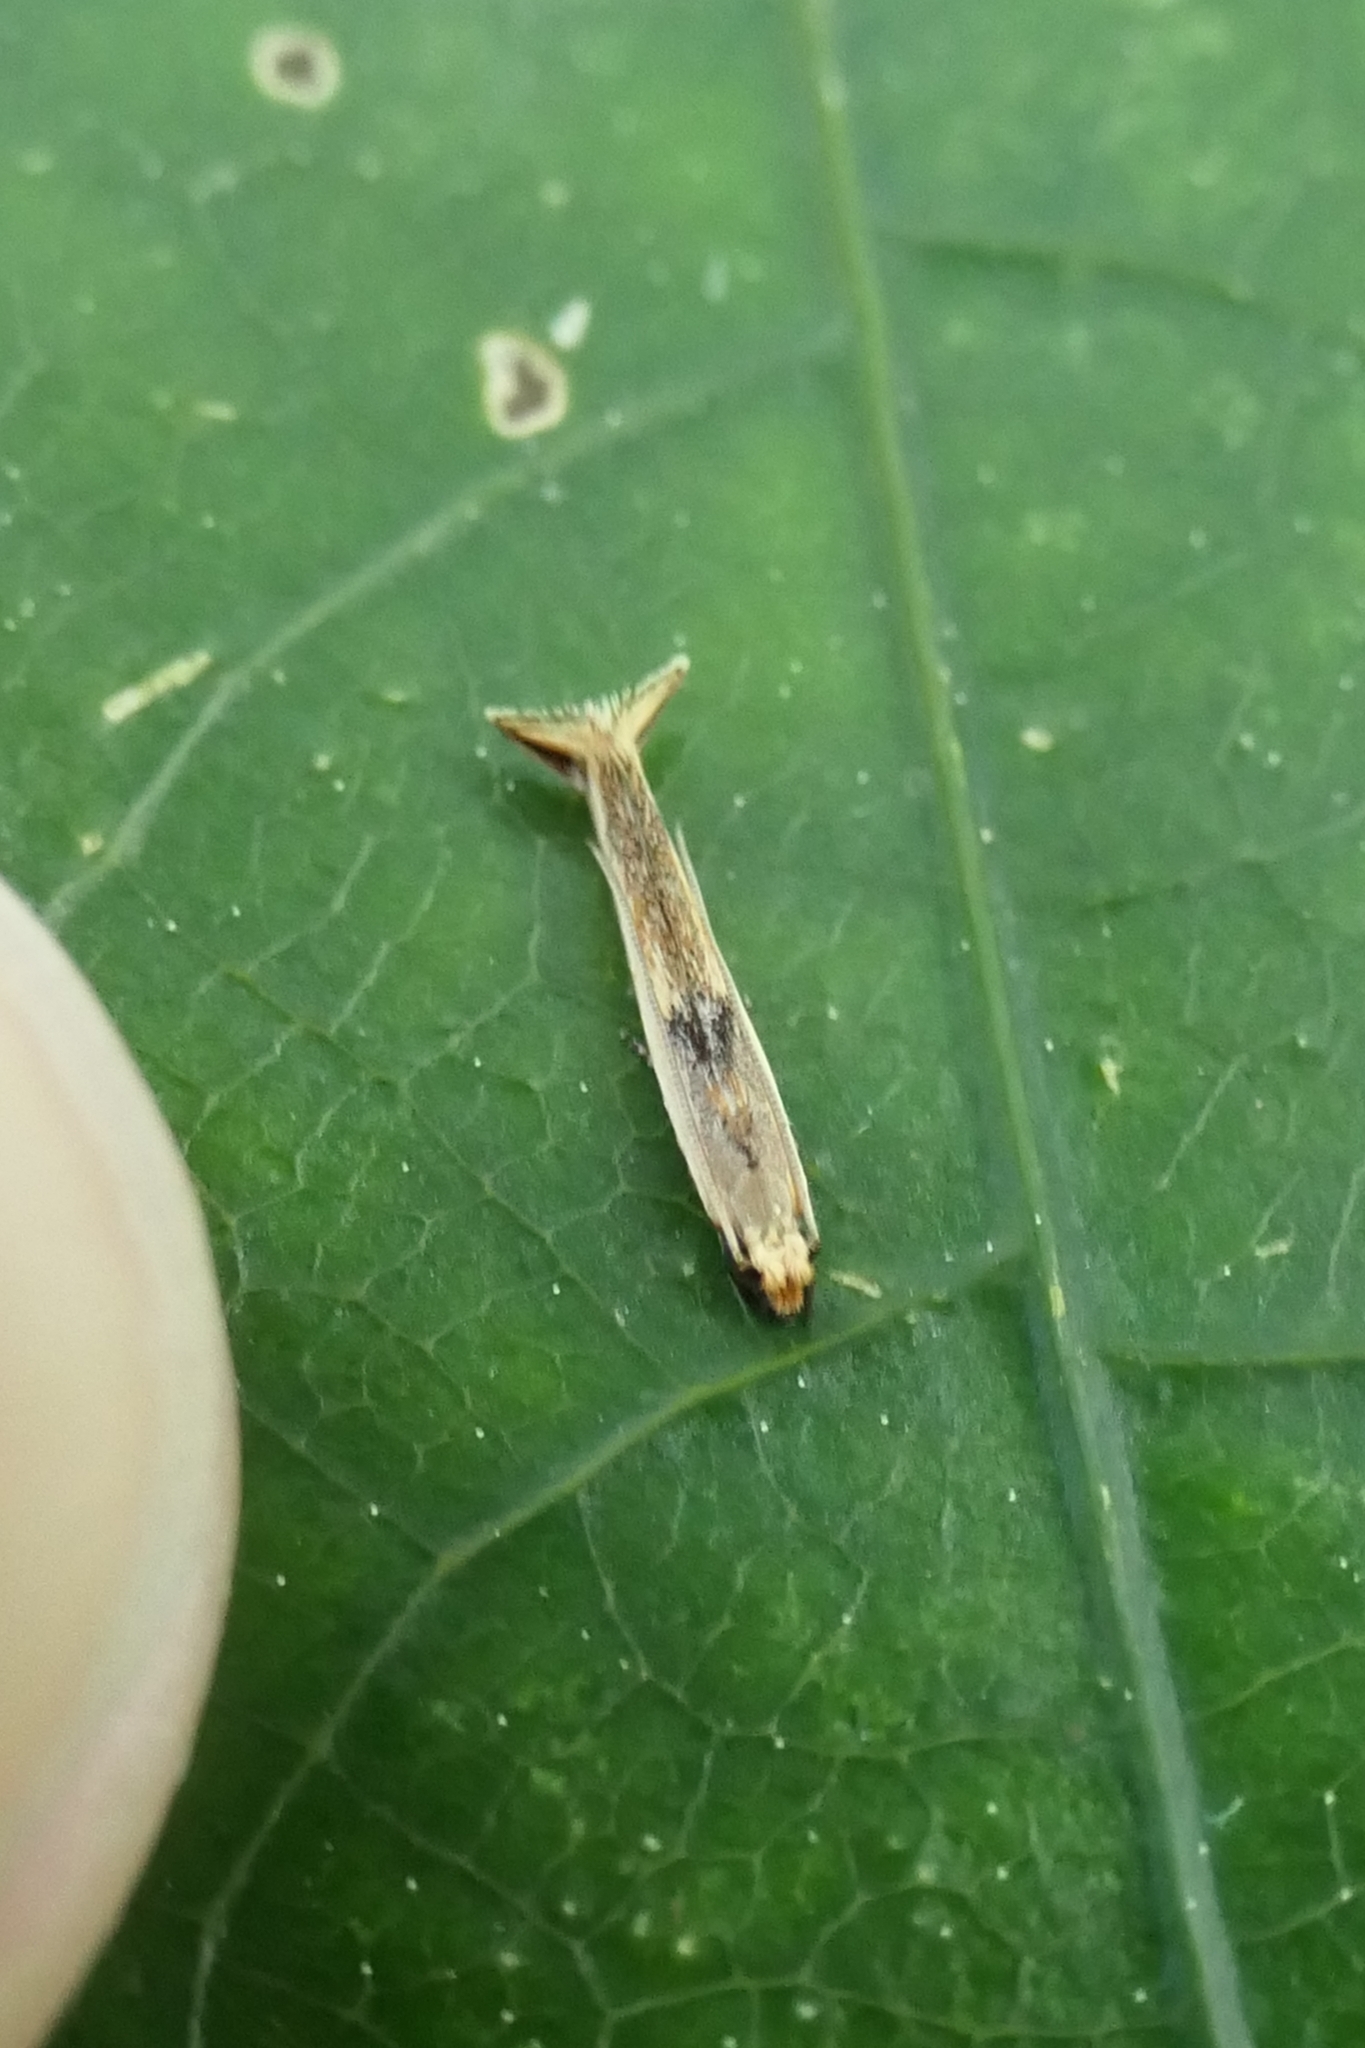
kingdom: Animalia
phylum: Arthropoda
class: Insecta
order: Lepidoptera
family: Tineidae
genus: Erechthias
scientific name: Erechthias charadrota
